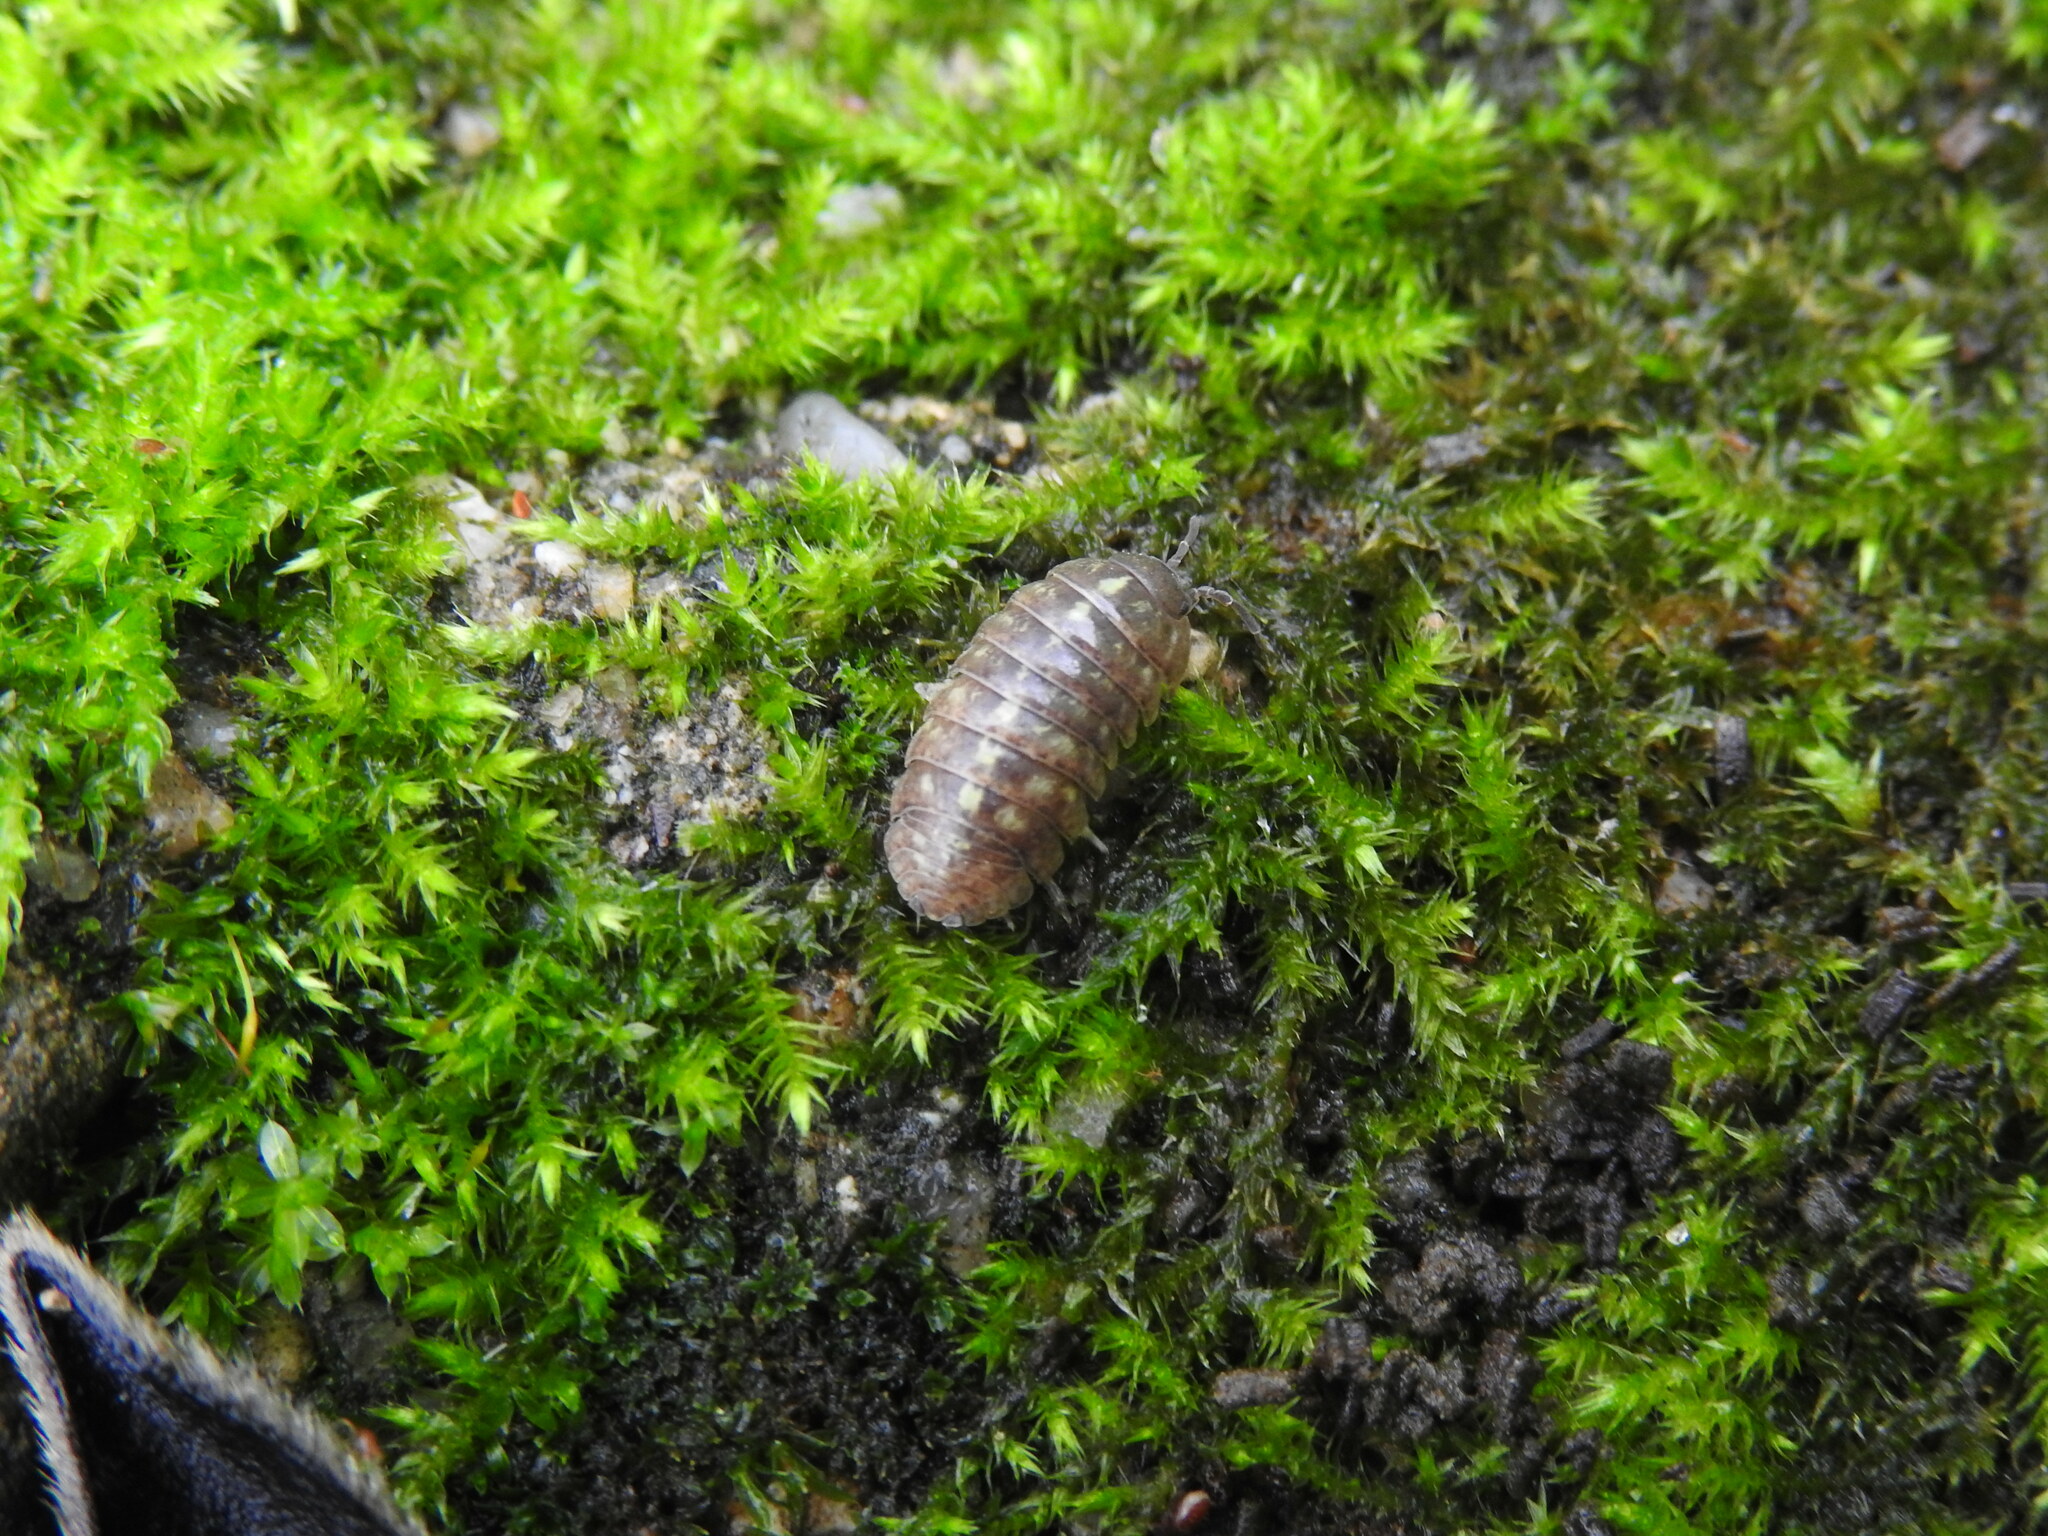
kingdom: Animalia
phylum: Arthropoda
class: Malacostraca
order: Isopoda
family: Armadillidiidae
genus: Armadillidium
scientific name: Armadillidium vulgare
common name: Common pill woodlouse
